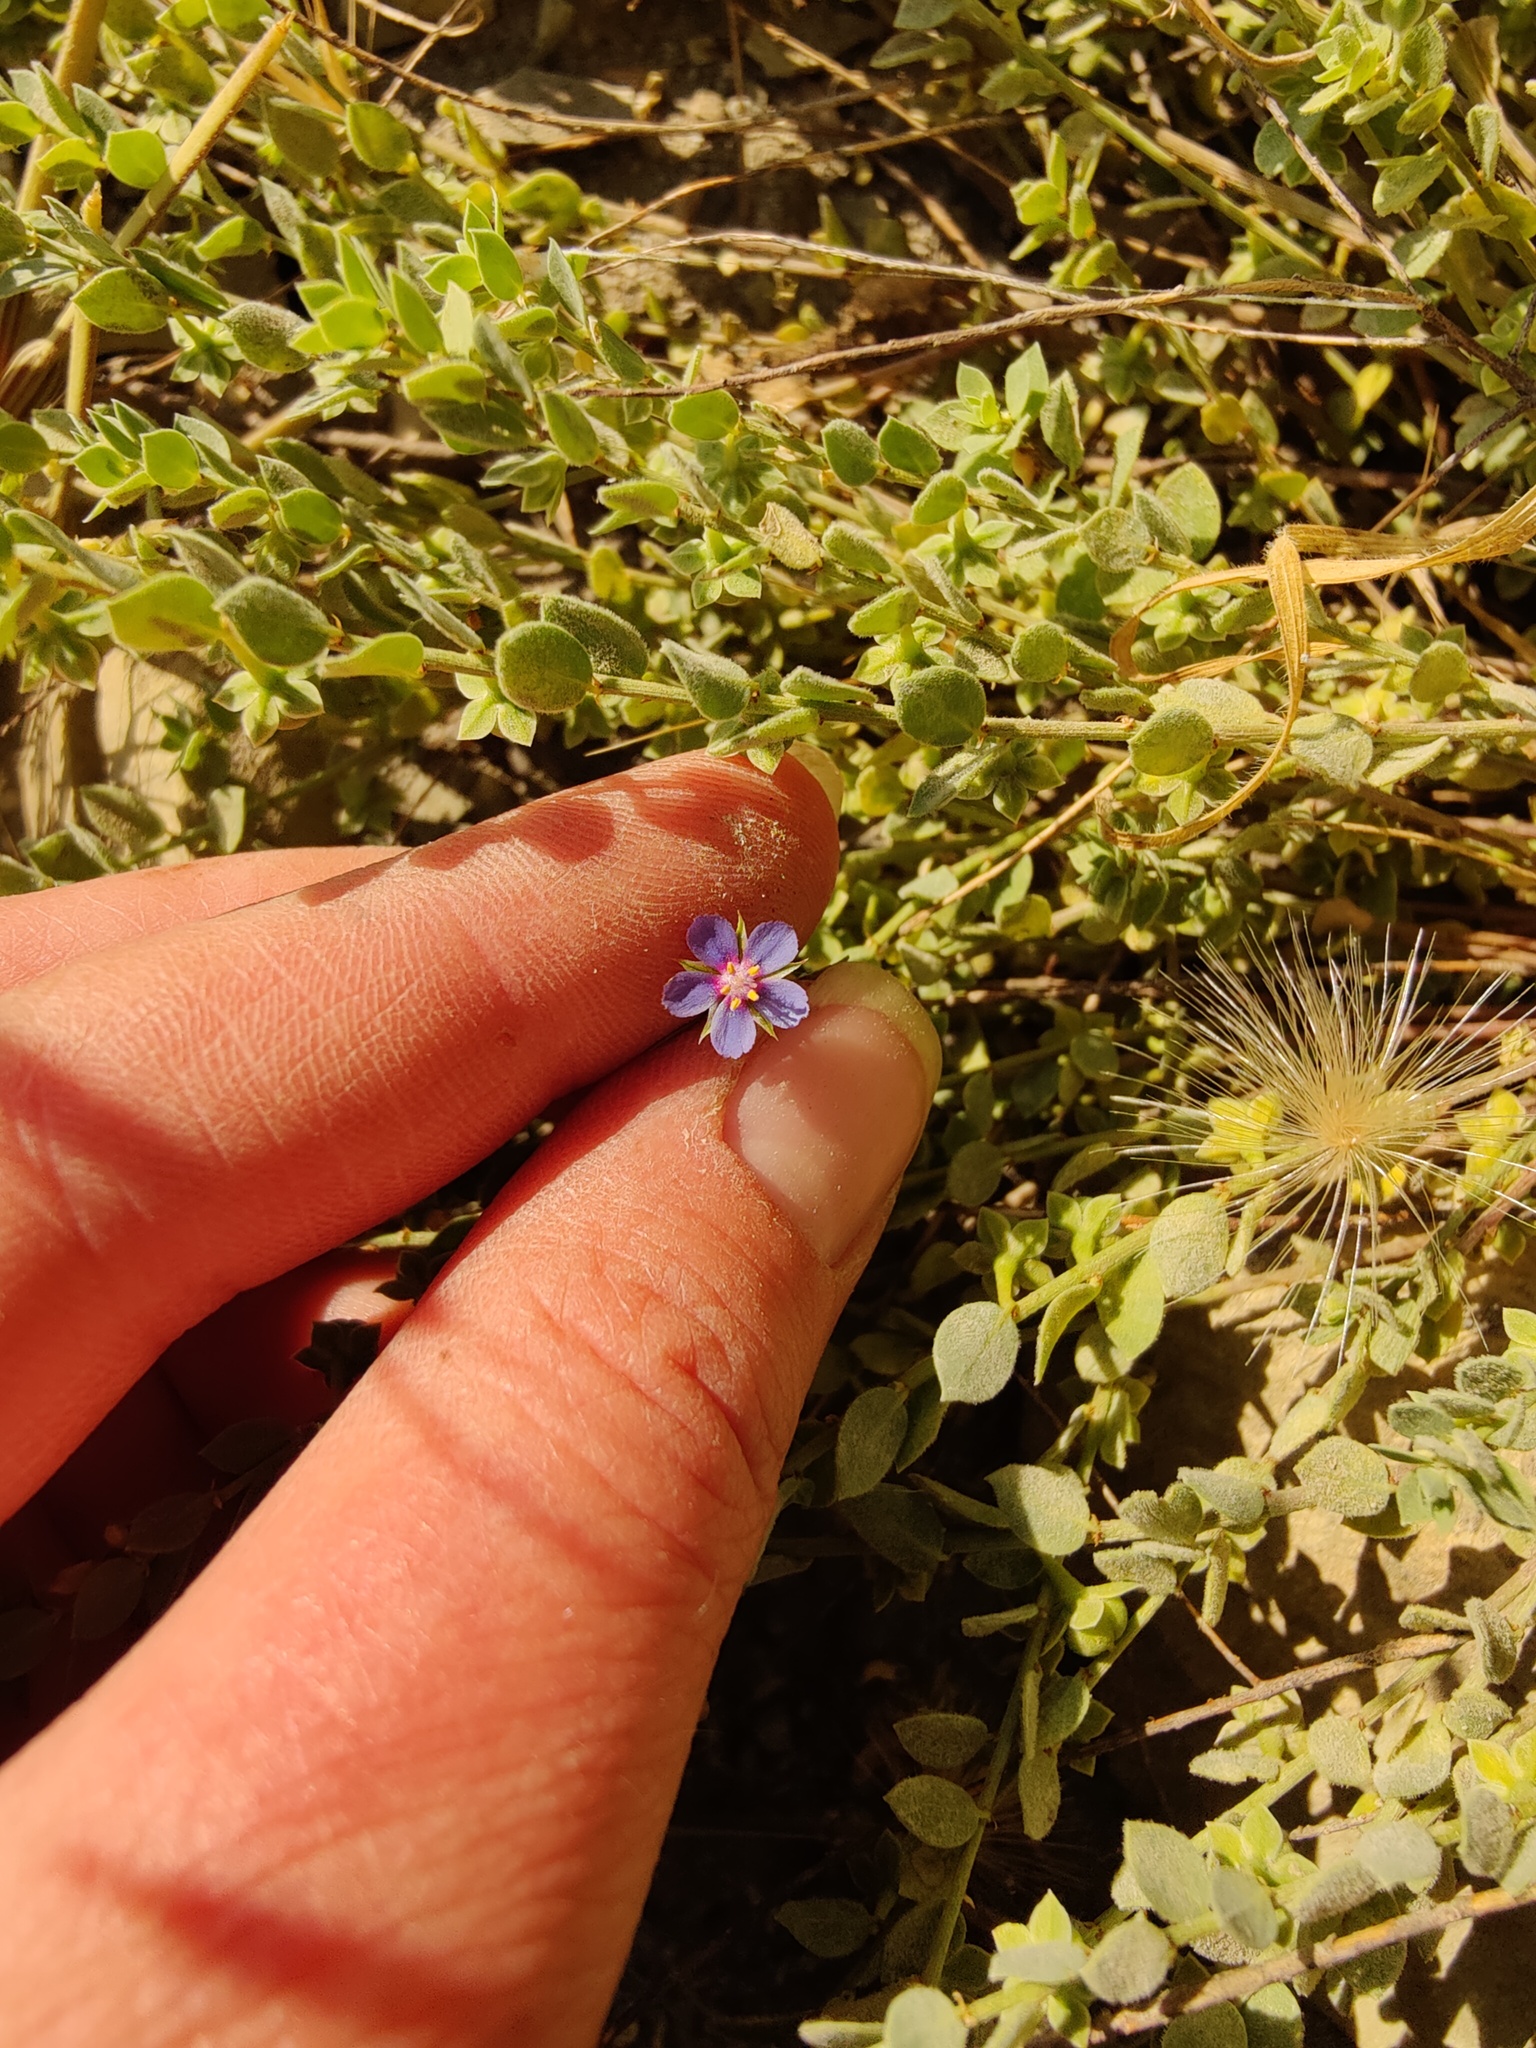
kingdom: Plantae
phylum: Tracheophyta
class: Magnoliopsida
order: Ericales
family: Primulaceae
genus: Lysimachia
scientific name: Lysimachia foemina
